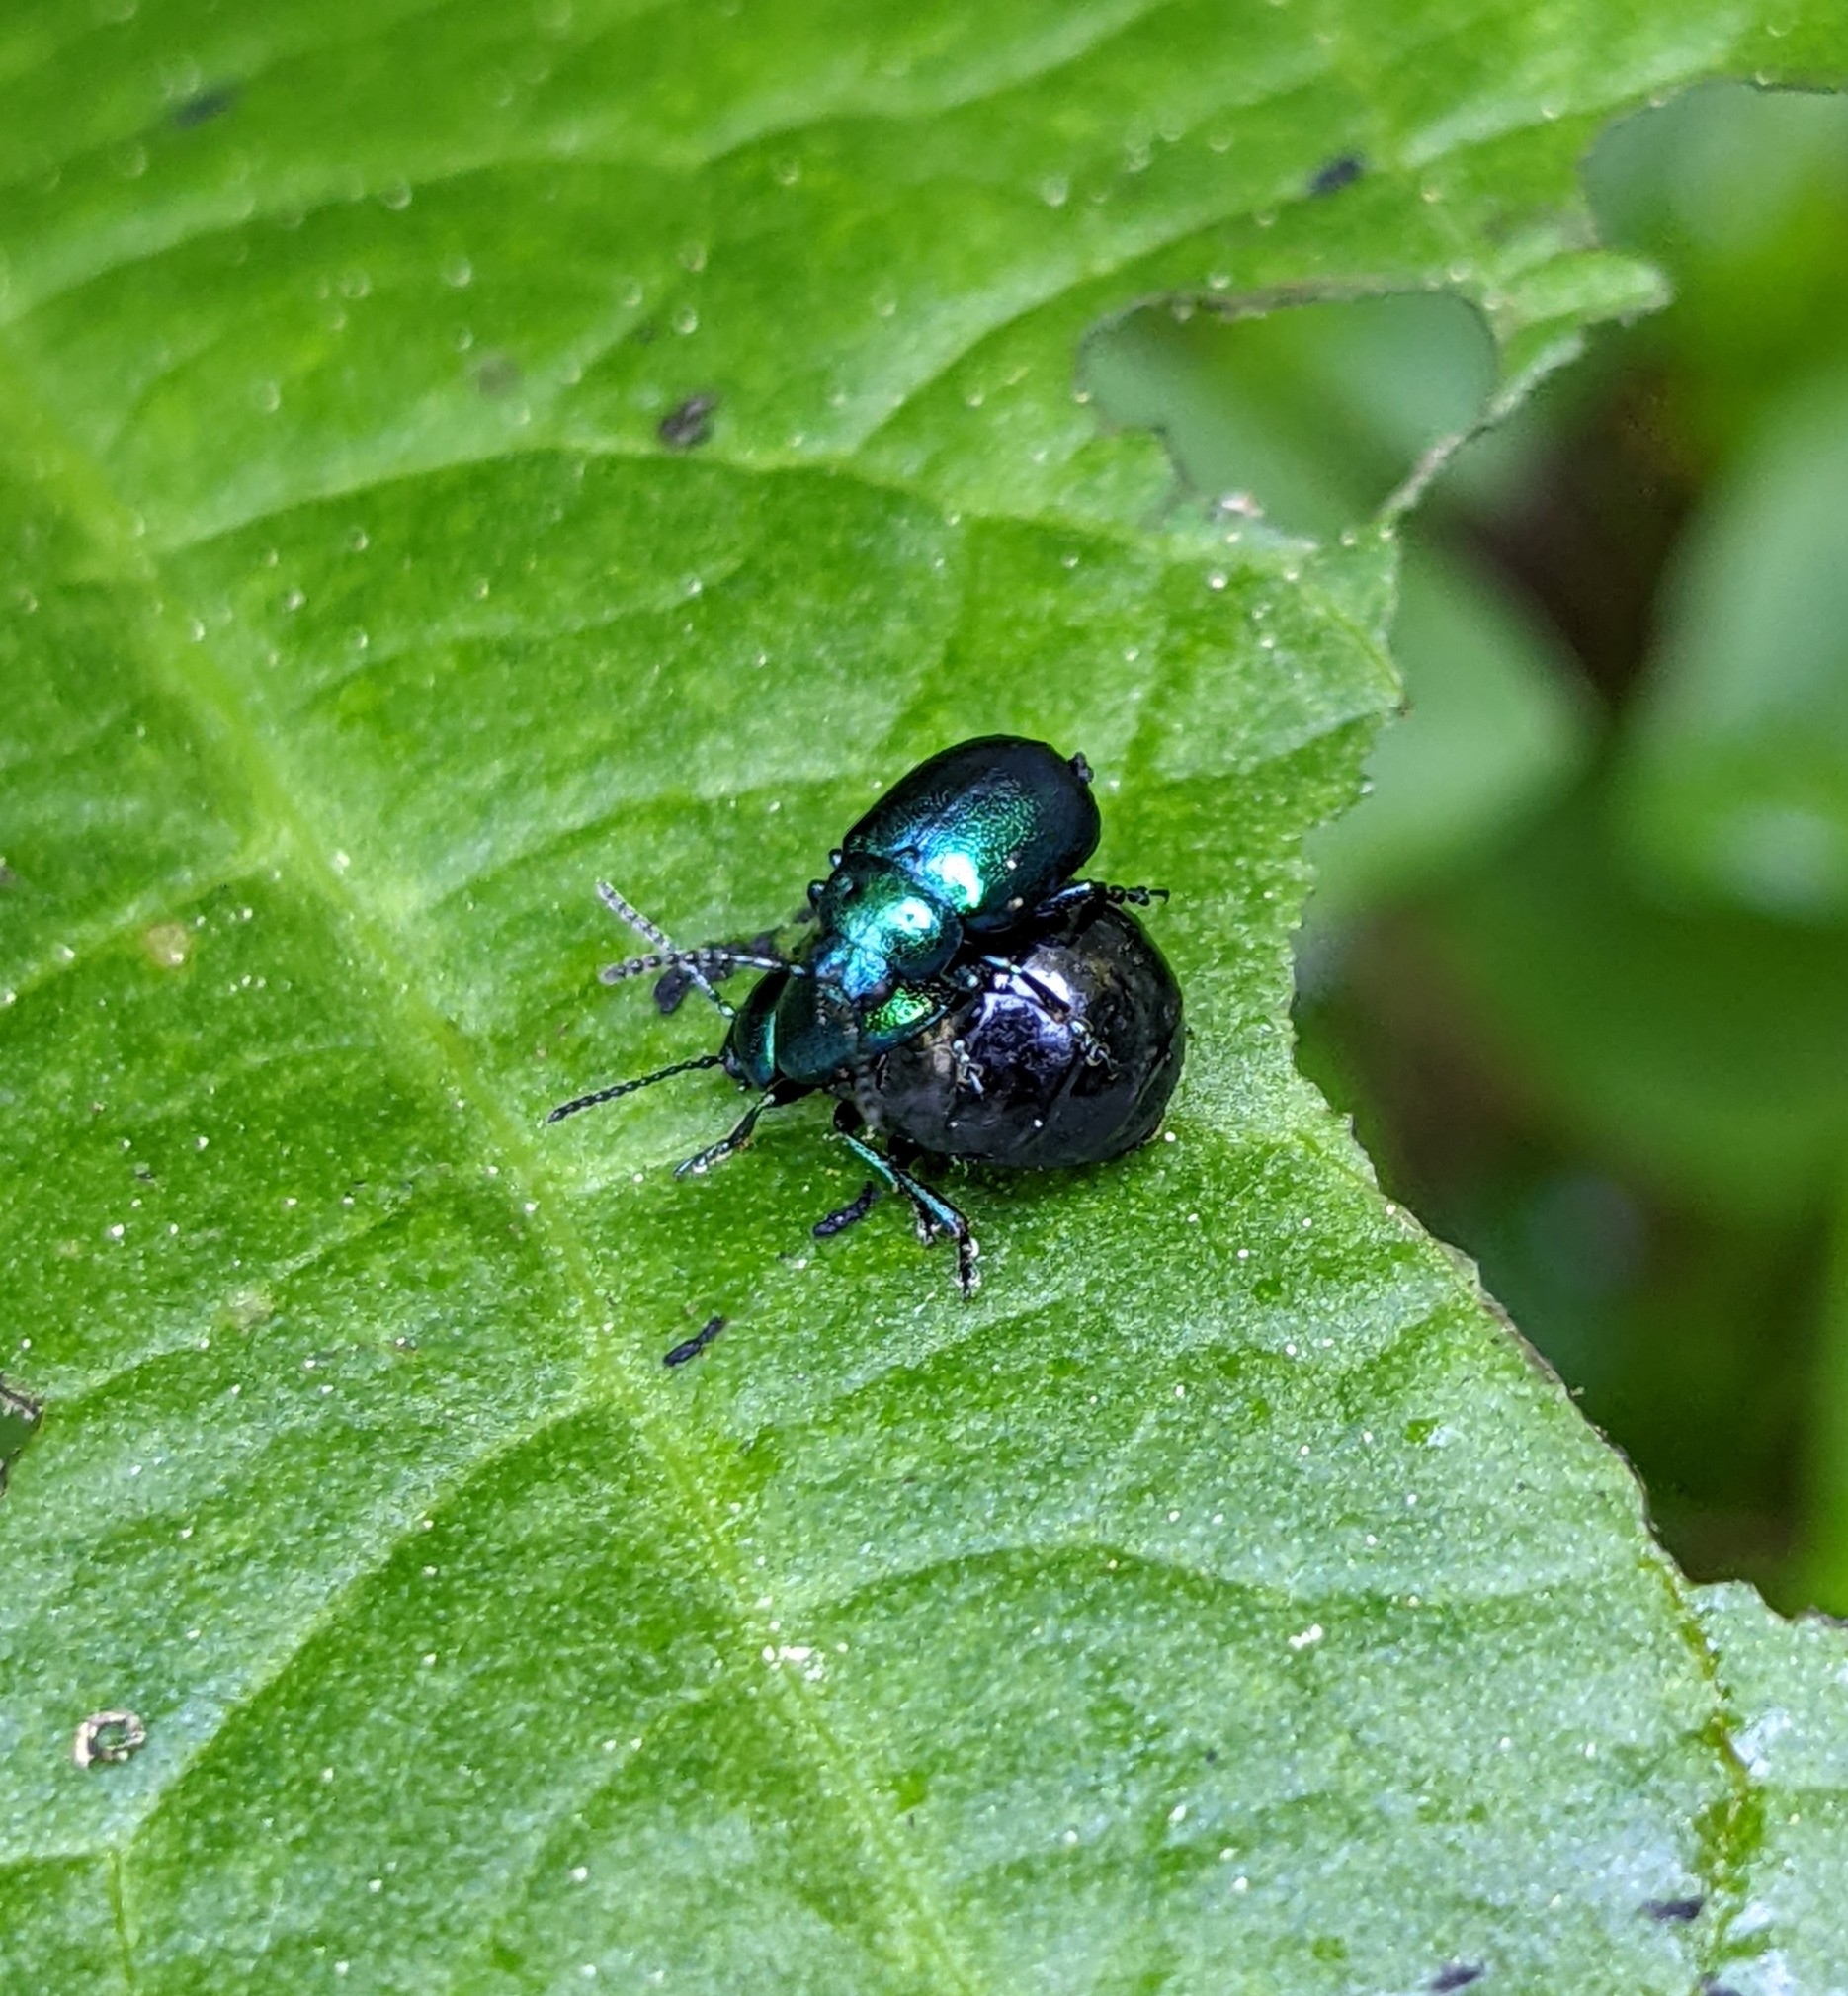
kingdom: Animalia
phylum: Arthropoda
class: Insecta
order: Coleoptera
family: Chrysomelidae
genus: Gastrophysa
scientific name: Gastrophysa viridula
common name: Green dock beetle
